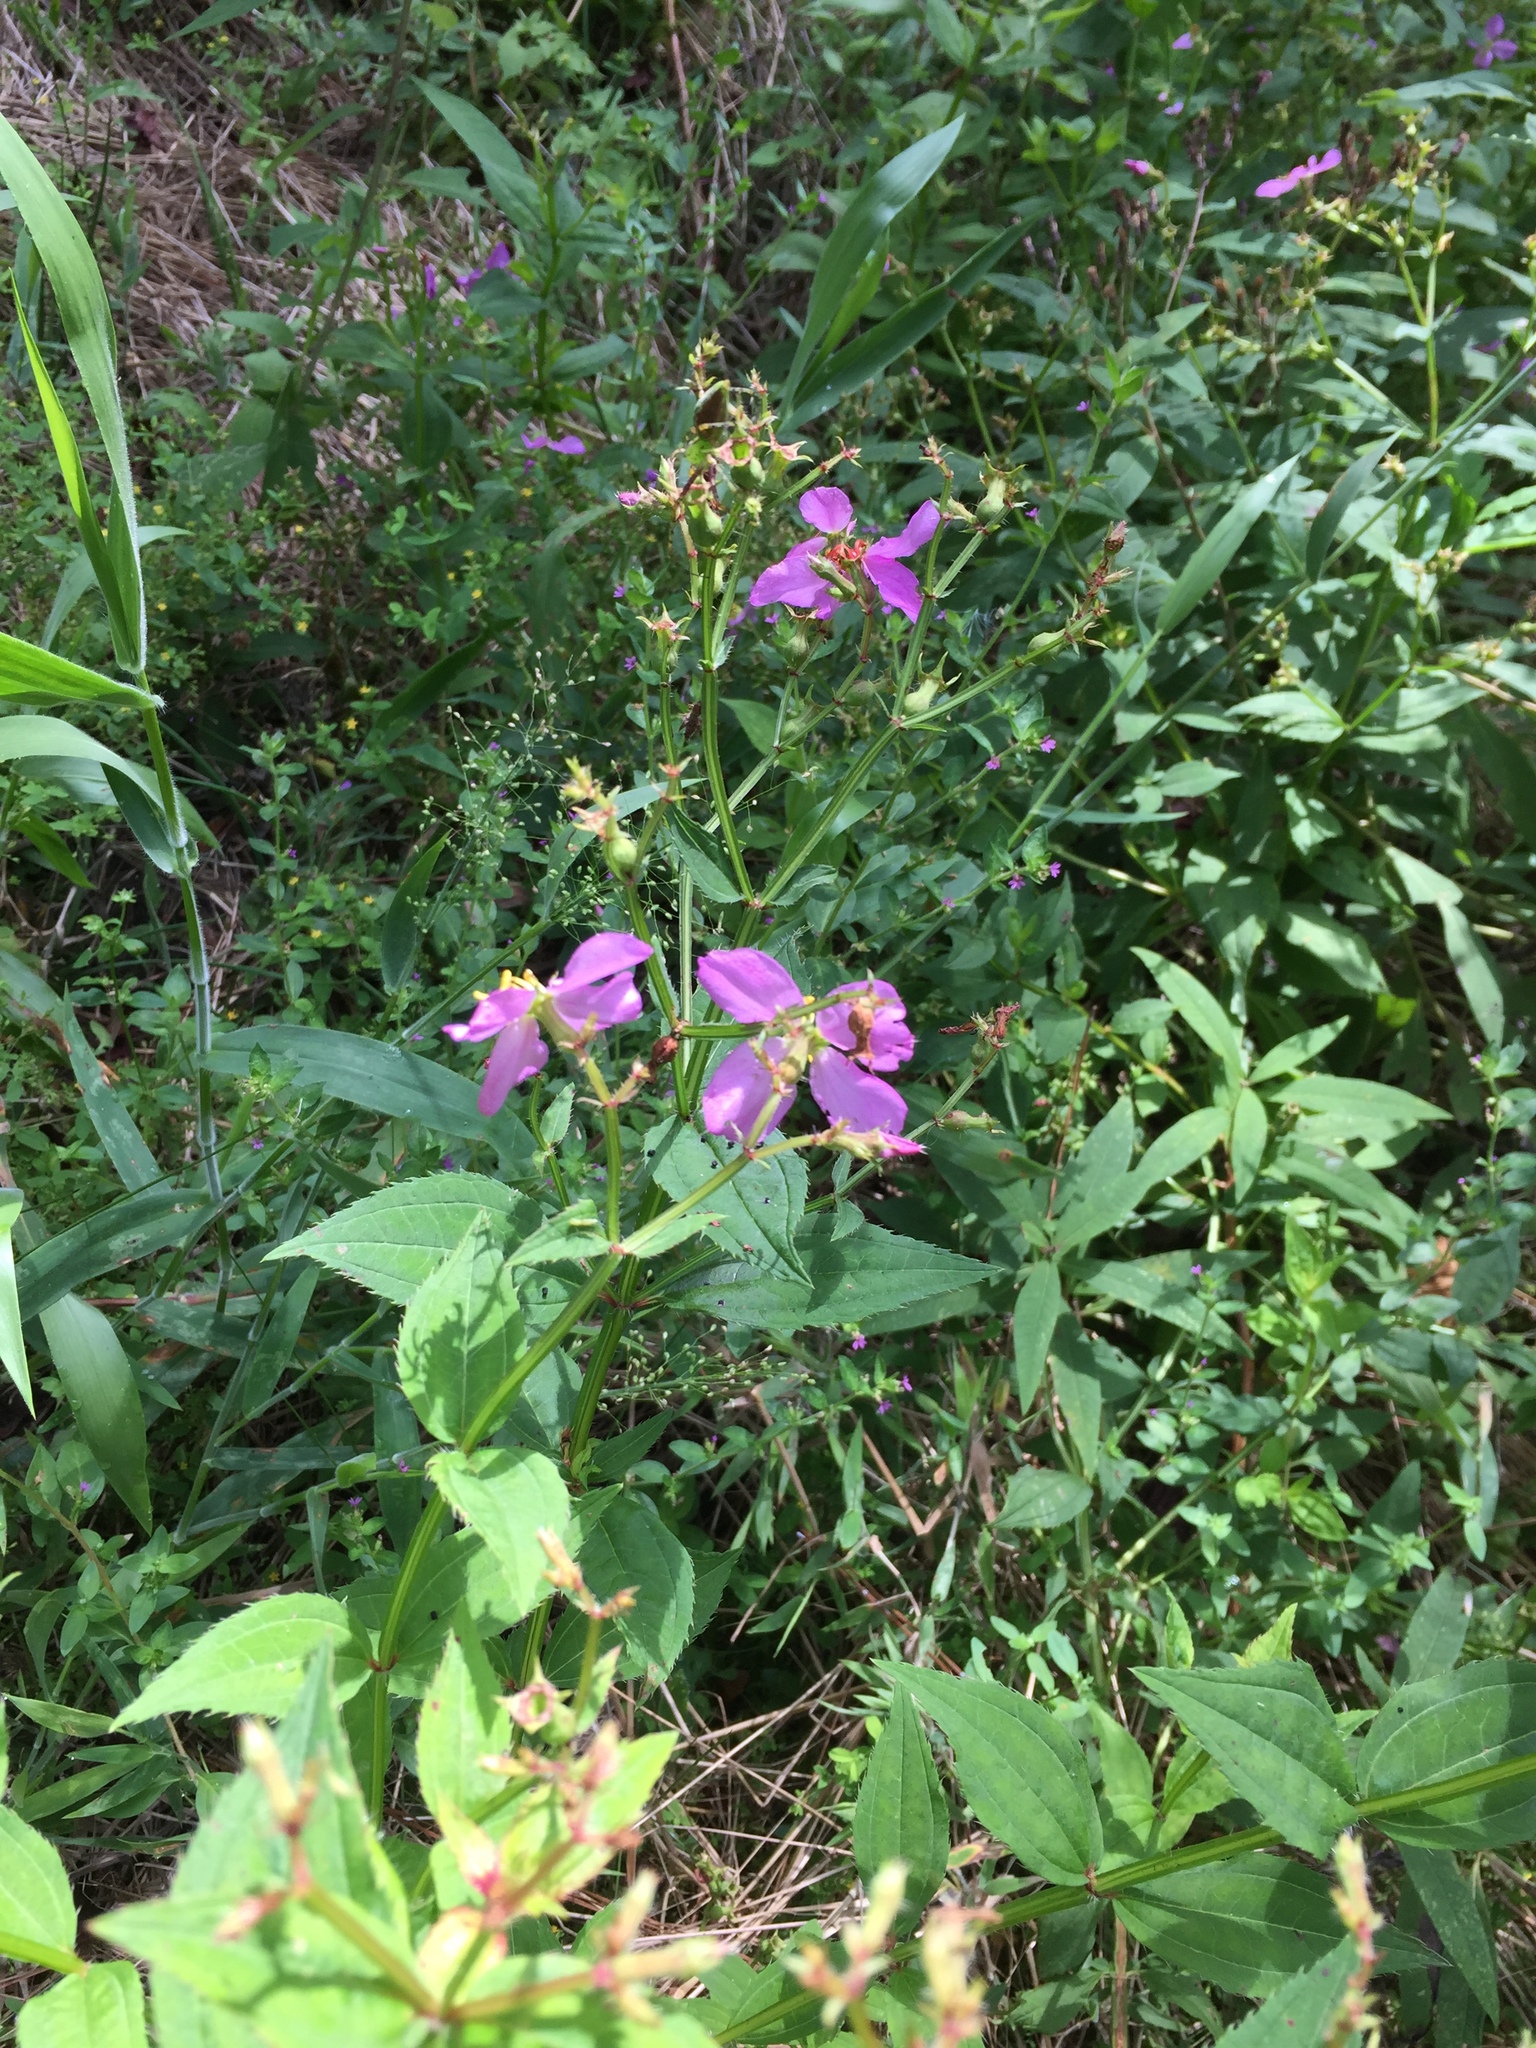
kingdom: Plantae
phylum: Tracheophyta
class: Magnoliopsida
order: Myrtales
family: Melastomataceae
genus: Rhexia
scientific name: Rhexia virginica
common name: Common meadow beauty
